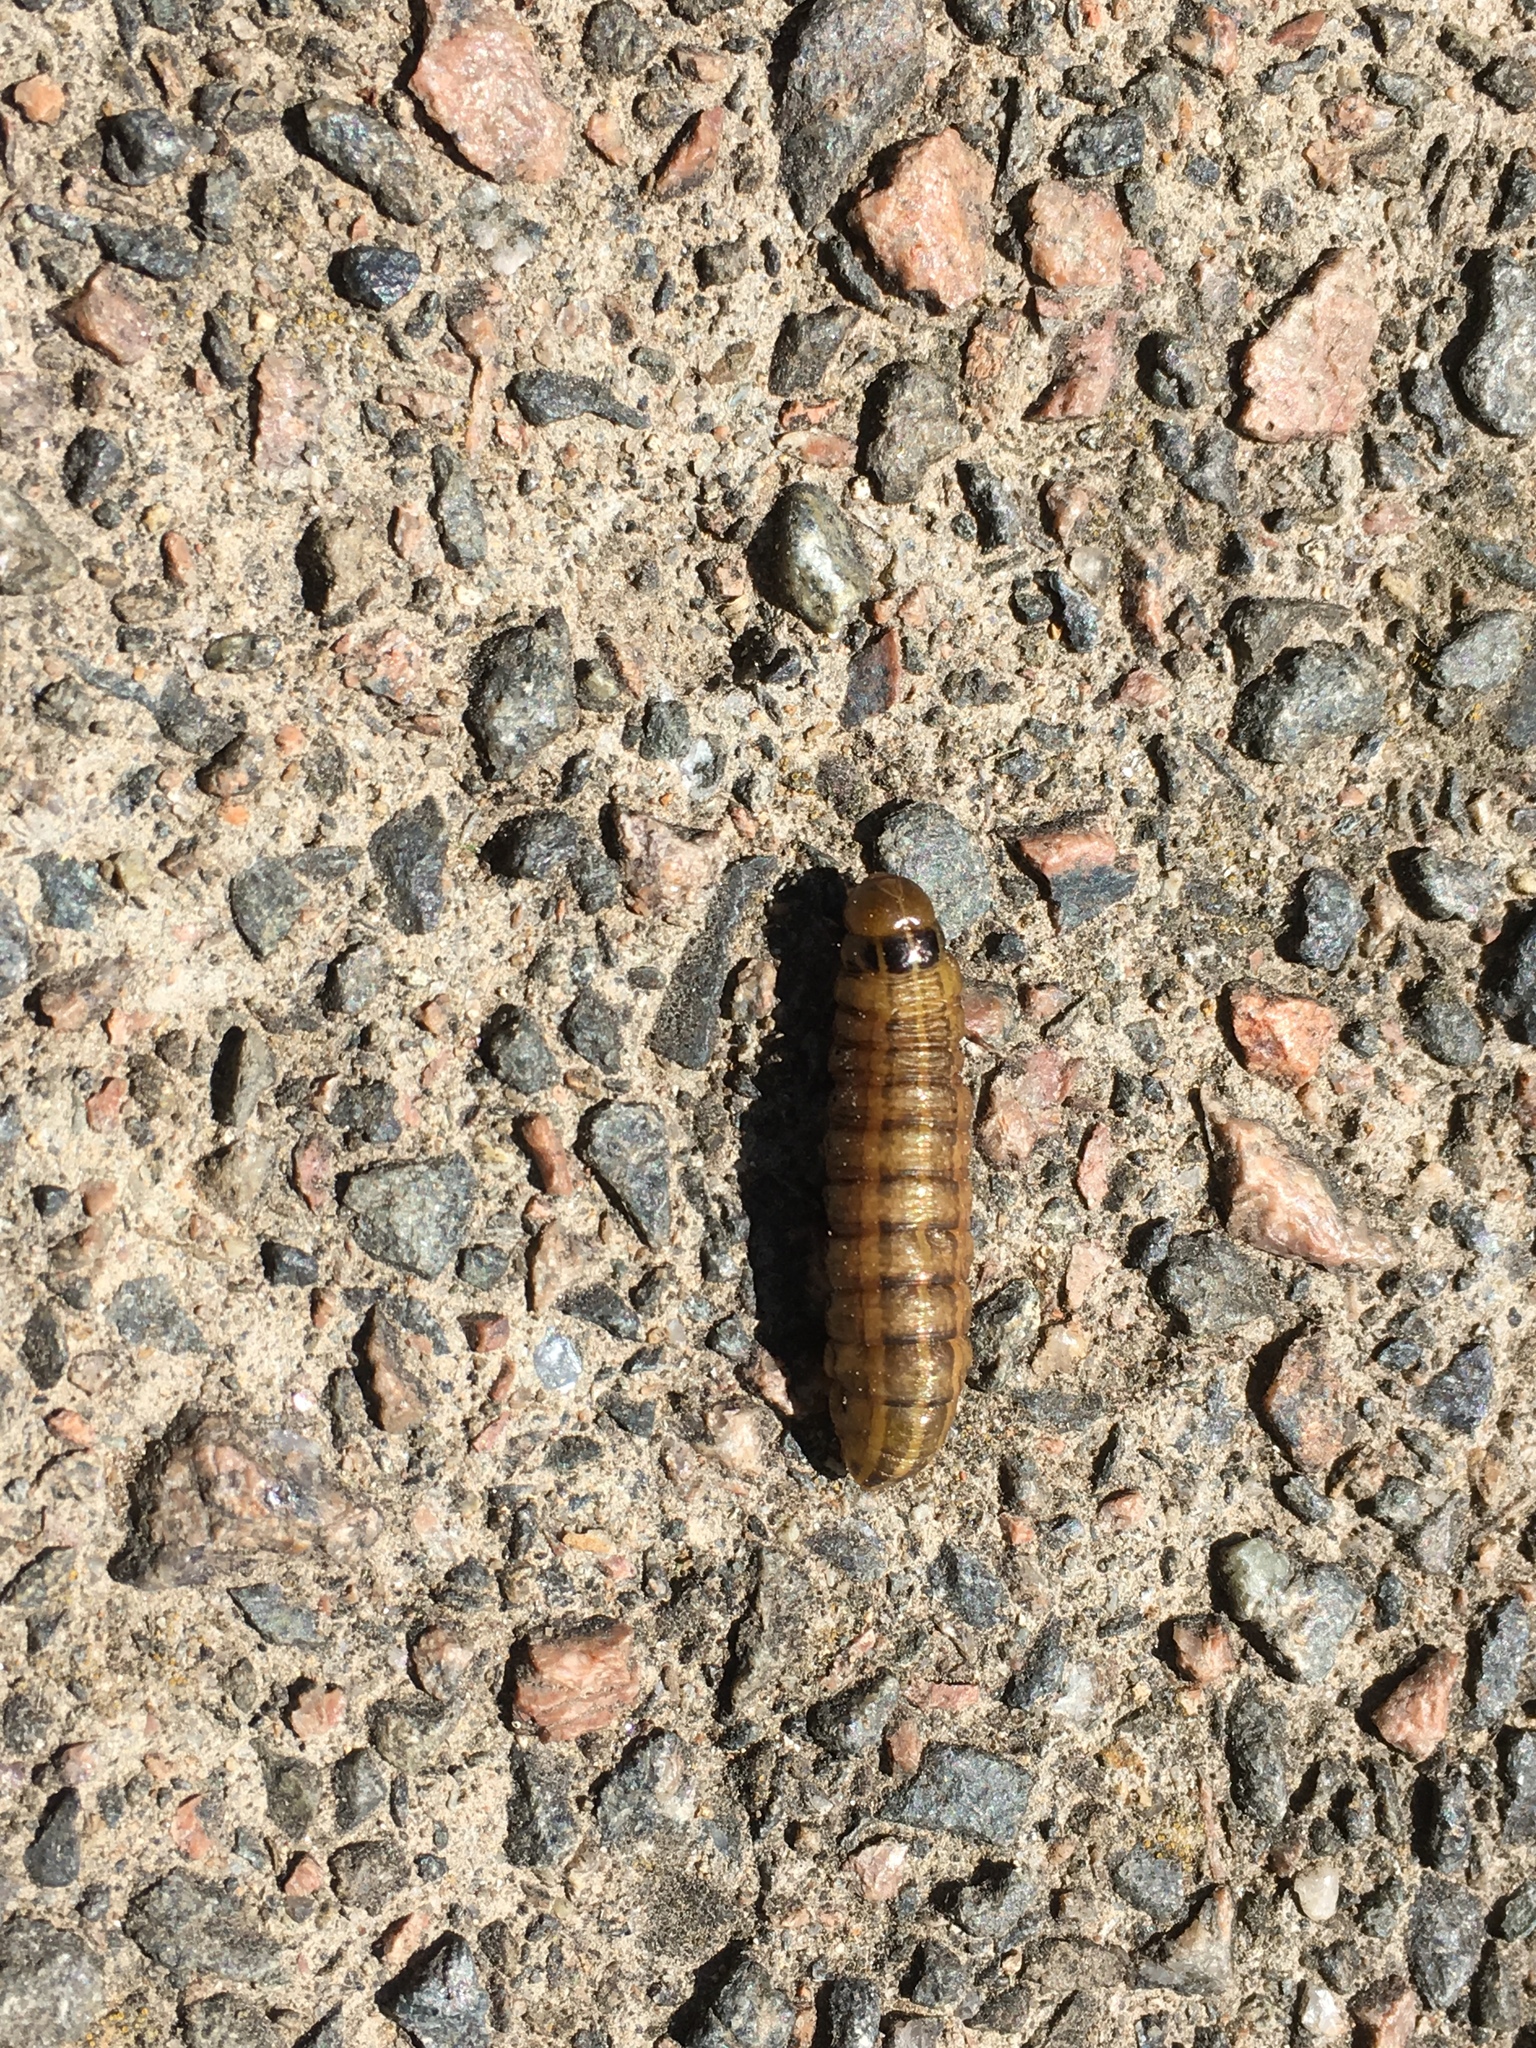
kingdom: Animalia
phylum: Arthropoda
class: Insecta
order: Lepidoptera
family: Noctuidae
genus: Nephelodes
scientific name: Nephelodes minians
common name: Bronzed cutworm
